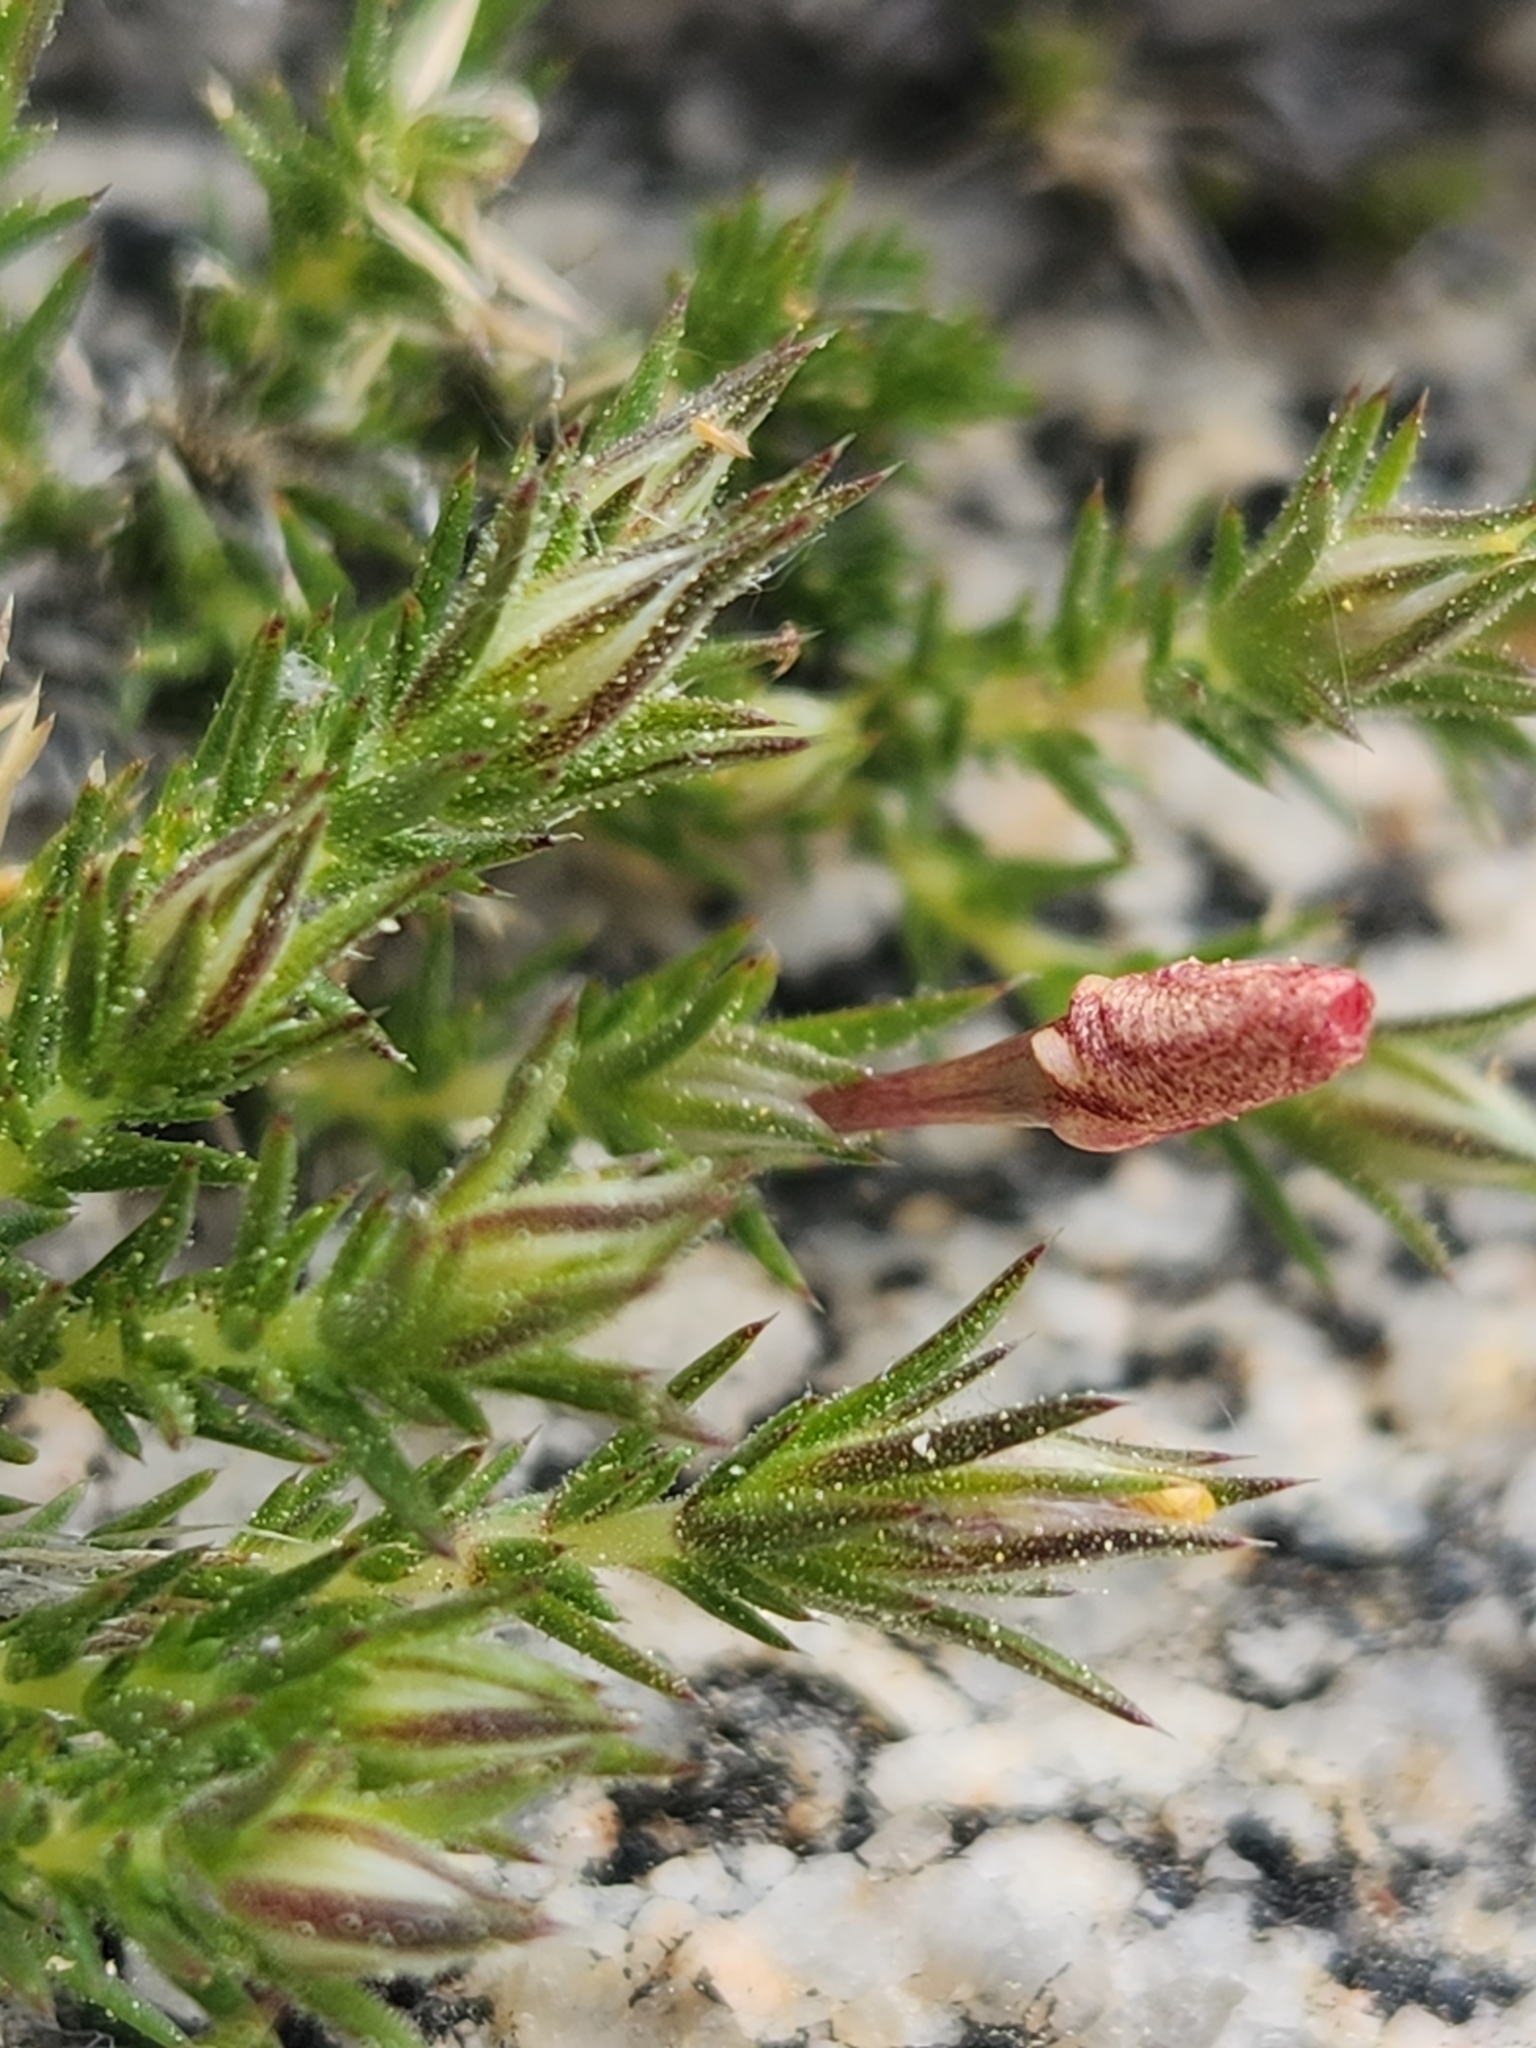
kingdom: Plantae
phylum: Tracheophyta
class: Magnoliopsida
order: Ericales
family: Polemoniaceae
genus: Linanthus
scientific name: Linanthus pungens
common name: Granite prickly phlox
